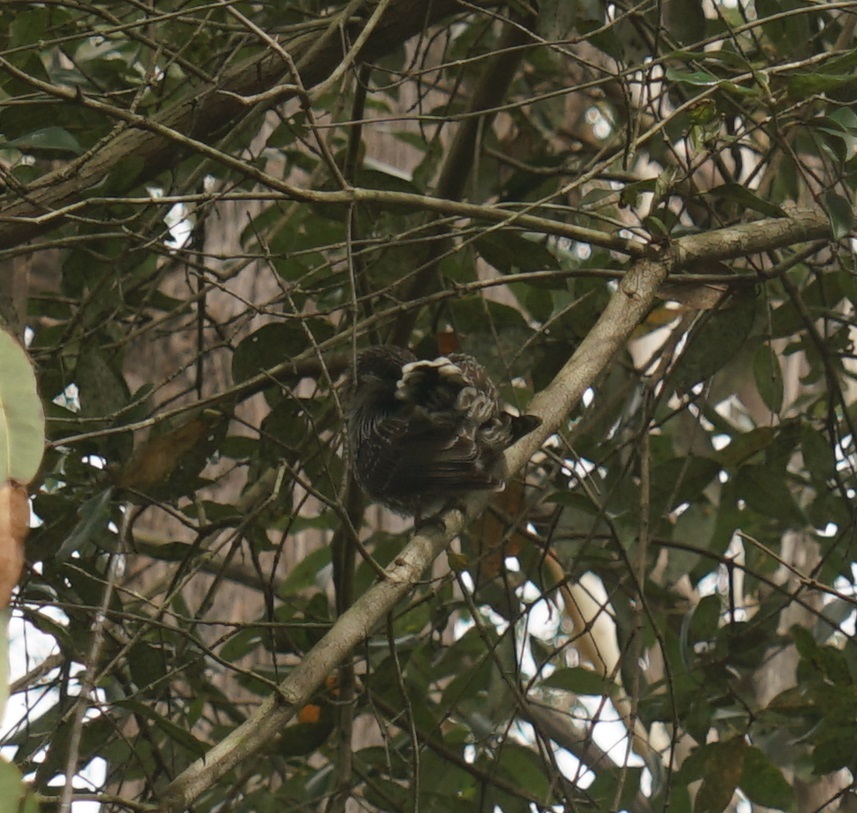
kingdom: Animalia
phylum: Chordata
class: Aves
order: Passeriformes
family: Meliphagidae
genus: Anthochaera
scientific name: Anthochaera chrysoptera
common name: Little wattlebird
